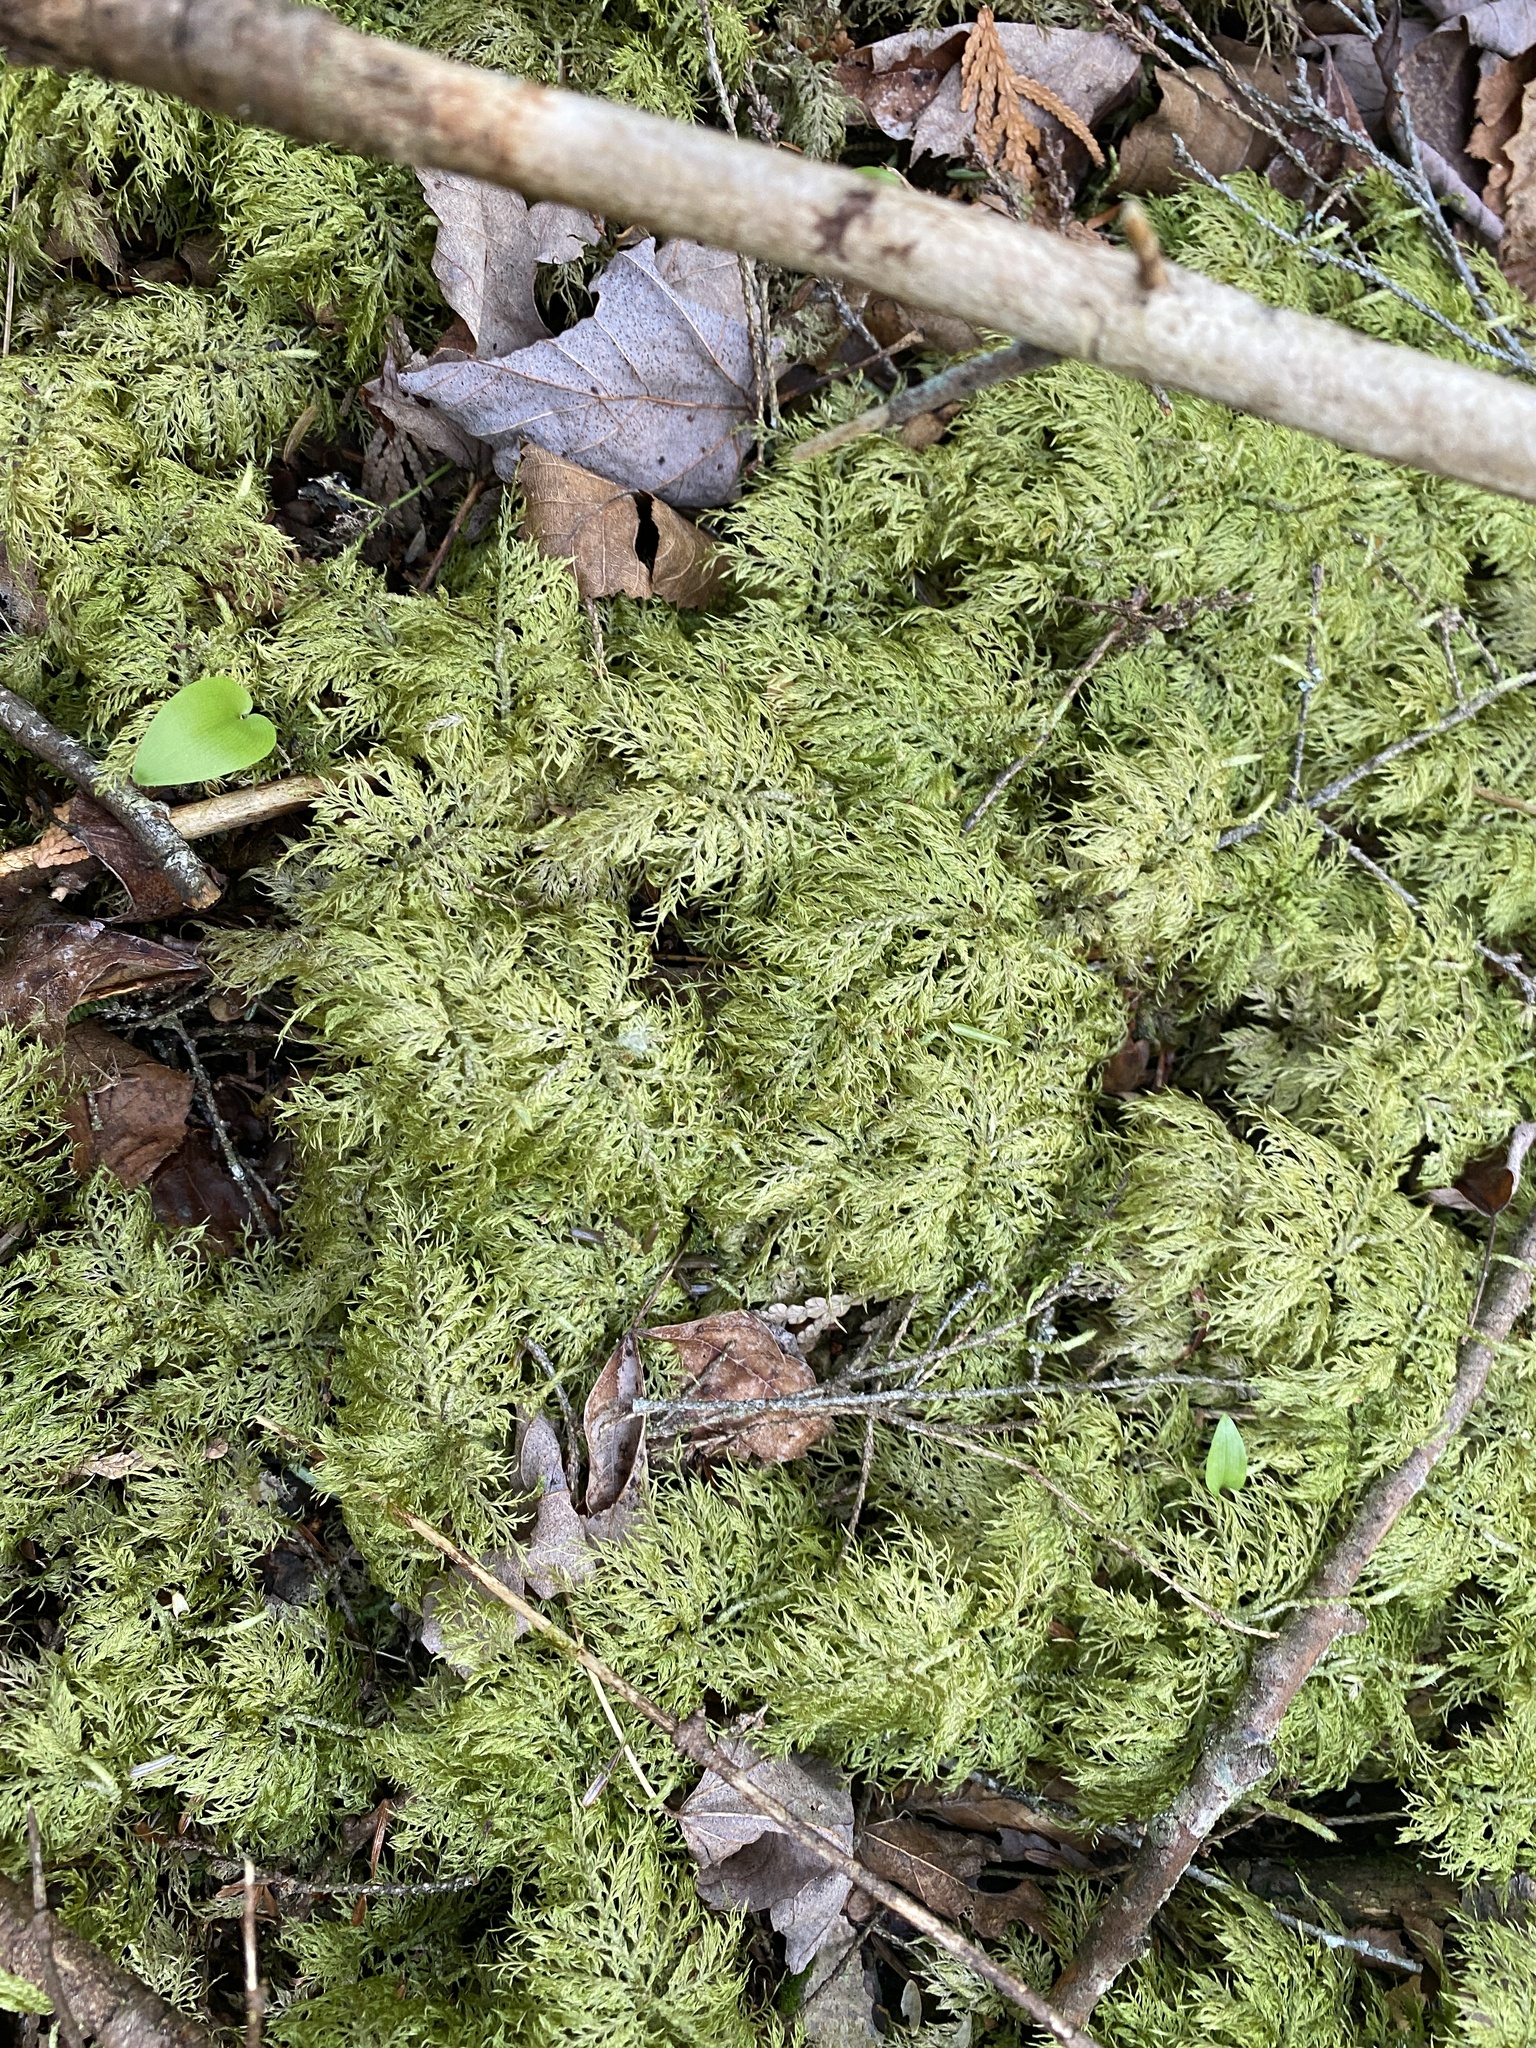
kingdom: Plantae
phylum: Bryophyta
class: Bryopsida
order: Hypnales
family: Hylocomiaceae
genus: Hylocomium
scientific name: Hylocomium splendens
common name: Stairstep moss
